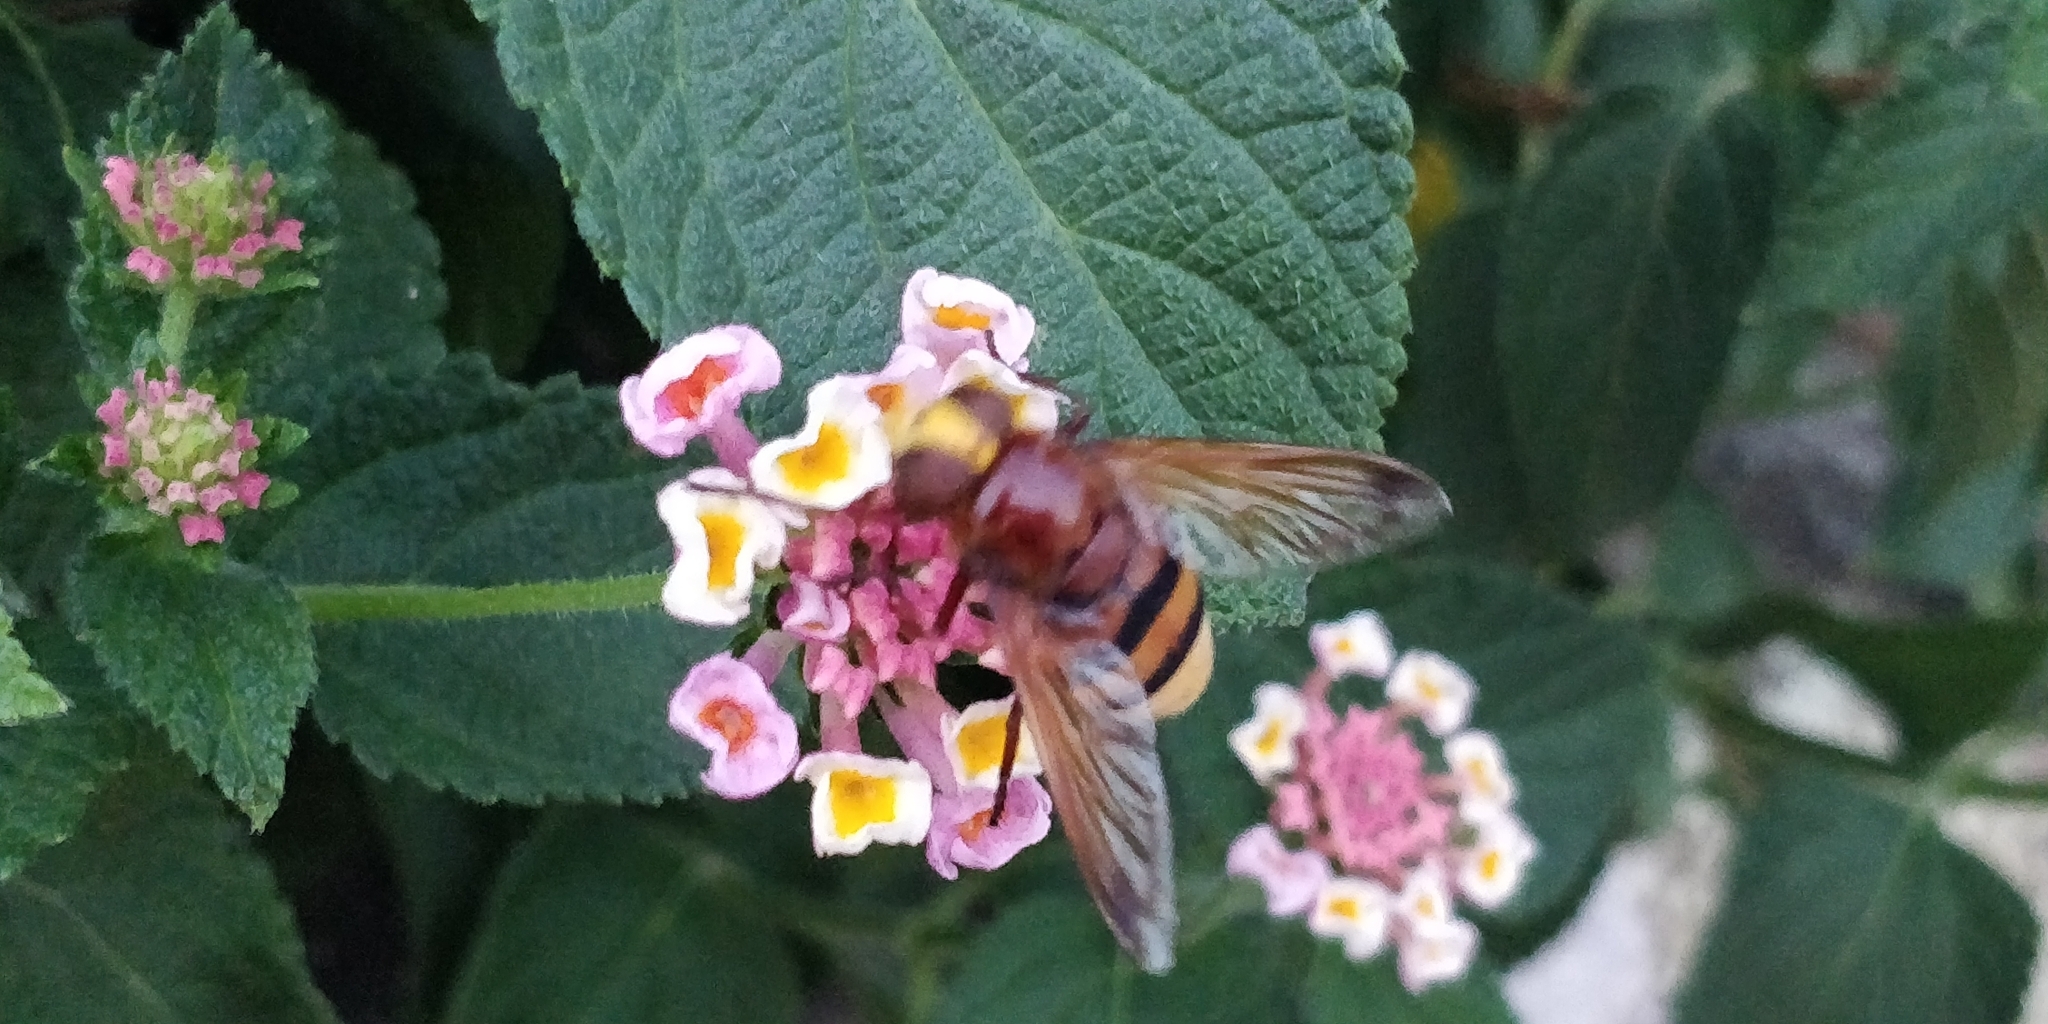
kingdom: Animalia
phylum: Arthropoda
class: Insecta
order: Diptera
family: Syrphidae
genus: Volucella
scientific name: Volucella zonaria
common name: Hornet hoverfly
